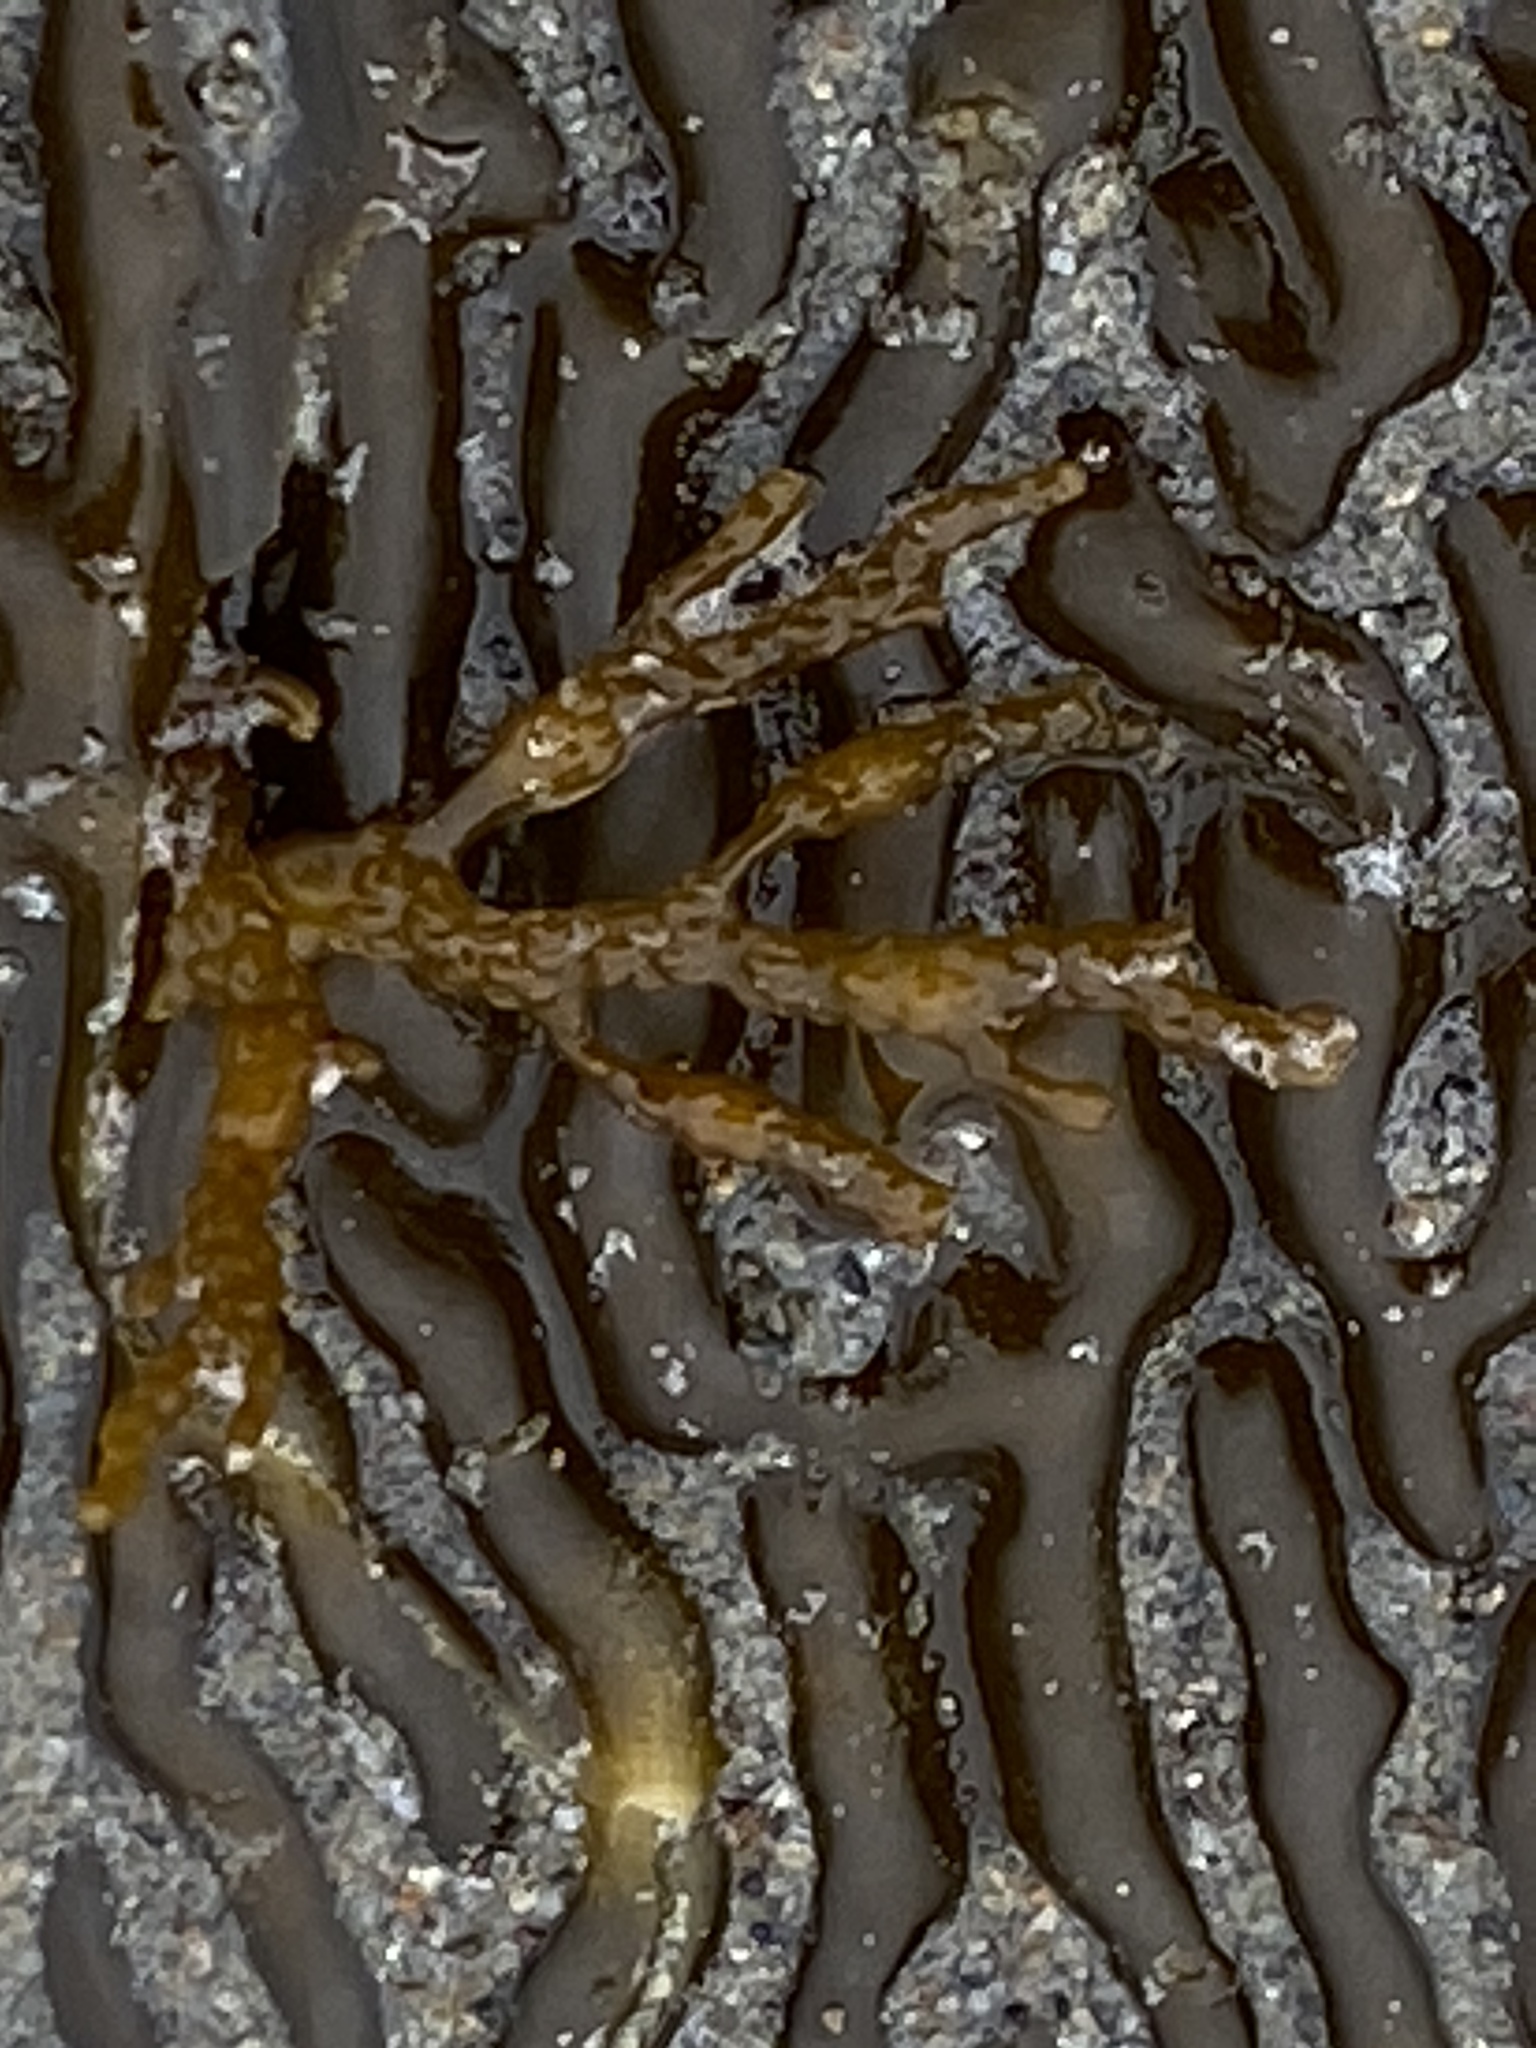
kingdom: Chromista
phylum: Ochrophyta
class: Phaeophyceae
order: Fucales
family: Sargassaceae
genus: Stephanocystis
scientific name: Stephanocystis
